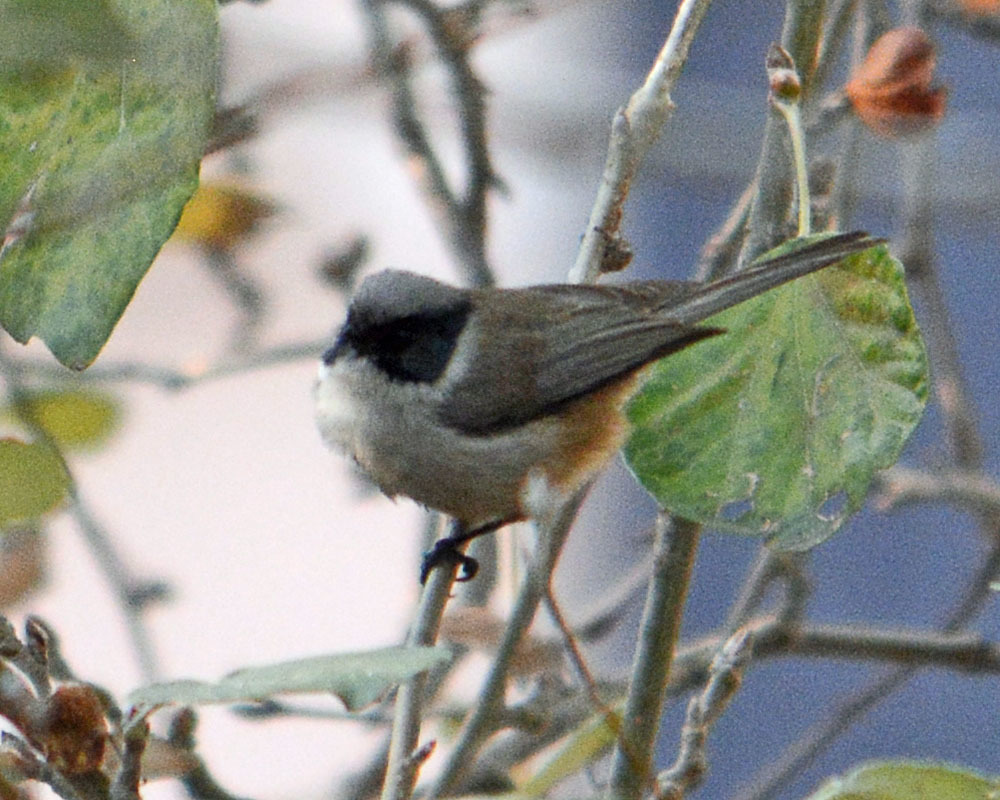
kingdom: Animalia
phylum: Chordata
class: Aves
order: Passeriformes
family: Aegithalidae
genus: Psaltriparus
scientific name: Psaltriparus minimus
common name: American bushtit
